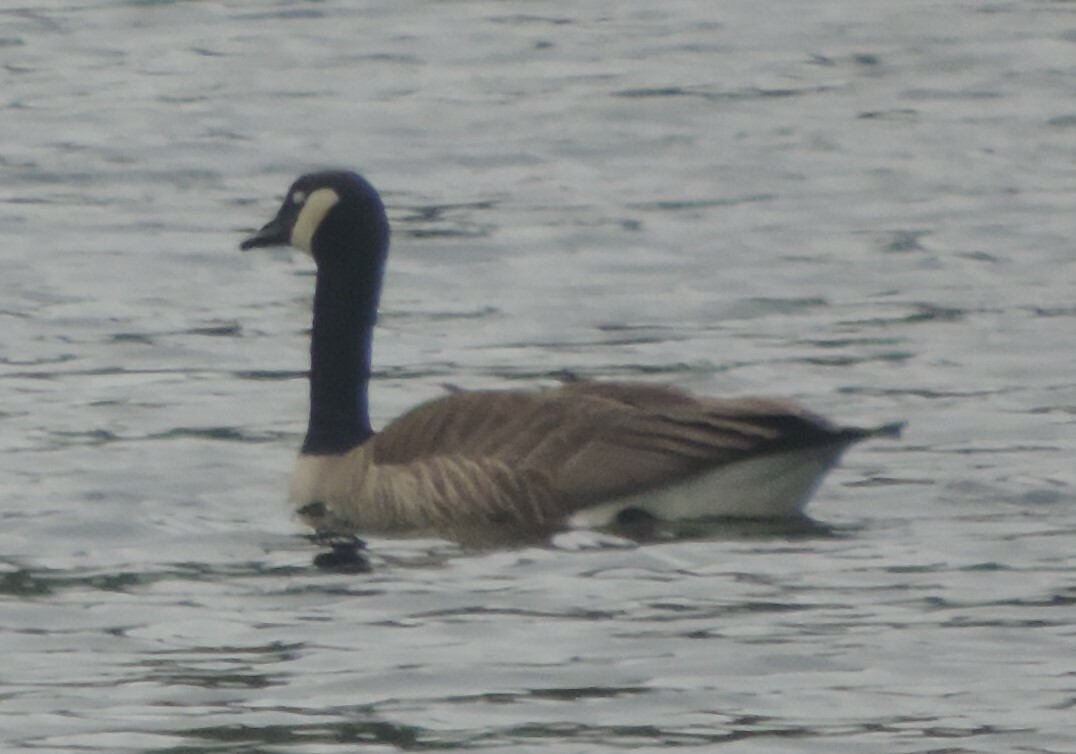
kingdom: Animalia
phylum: Chordata
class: Aves
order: Anseriformes
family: Anatidae
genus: Branta
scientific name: Branta canadensis
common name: Canada goose
